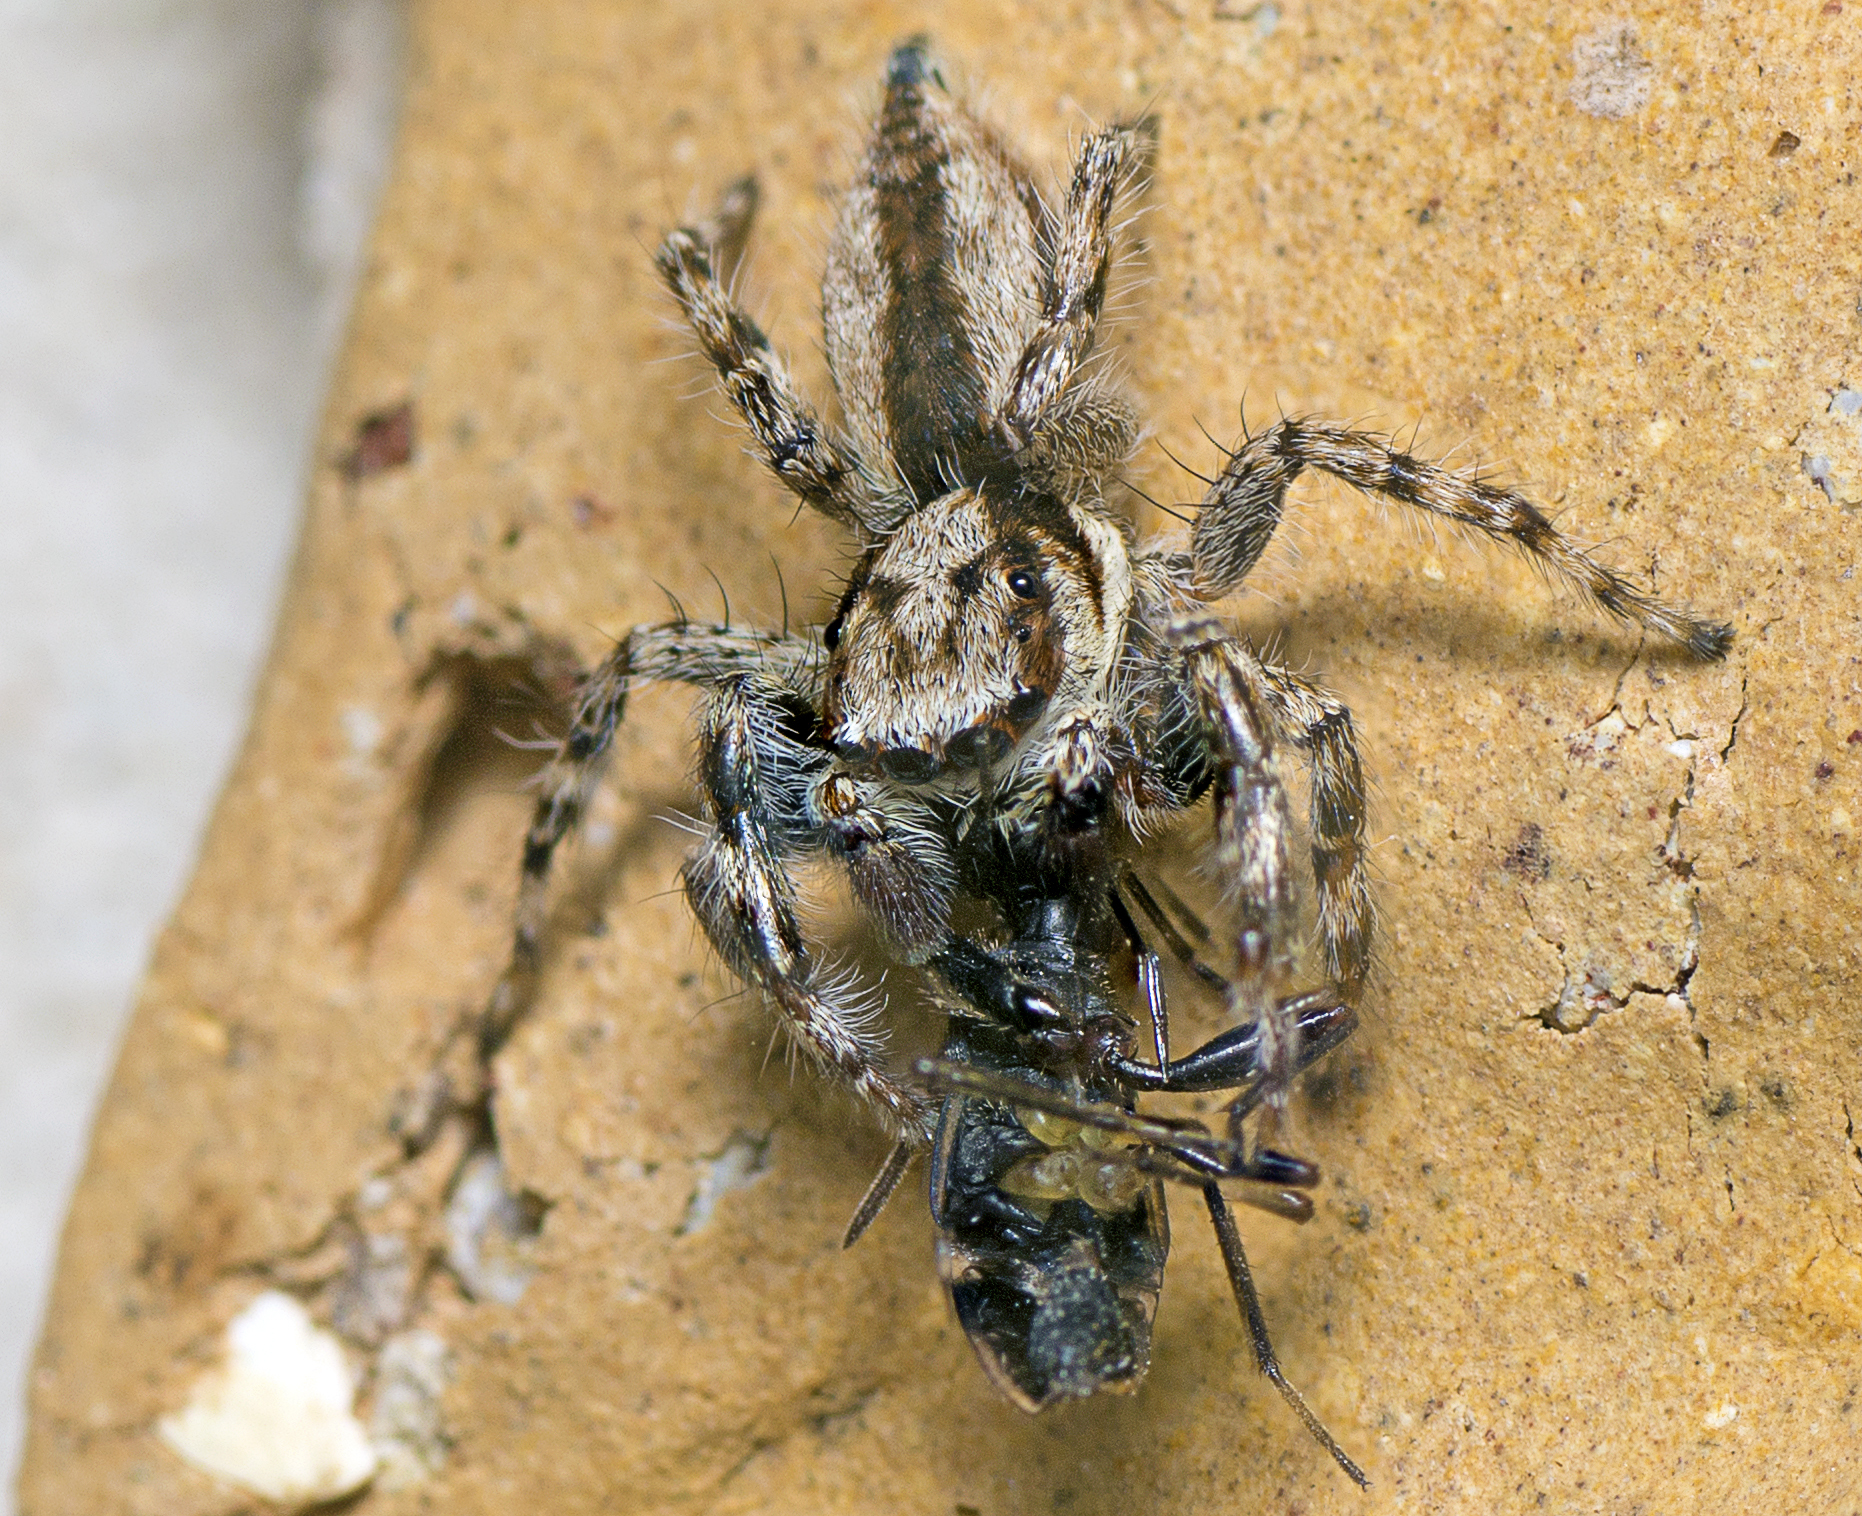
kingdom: Animalia
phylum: Arthropoda
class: Arachnida
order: Araneae
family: Salticidae
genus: Menemerus
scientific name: Menemerus bivittatus
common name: Gray wall jumper
